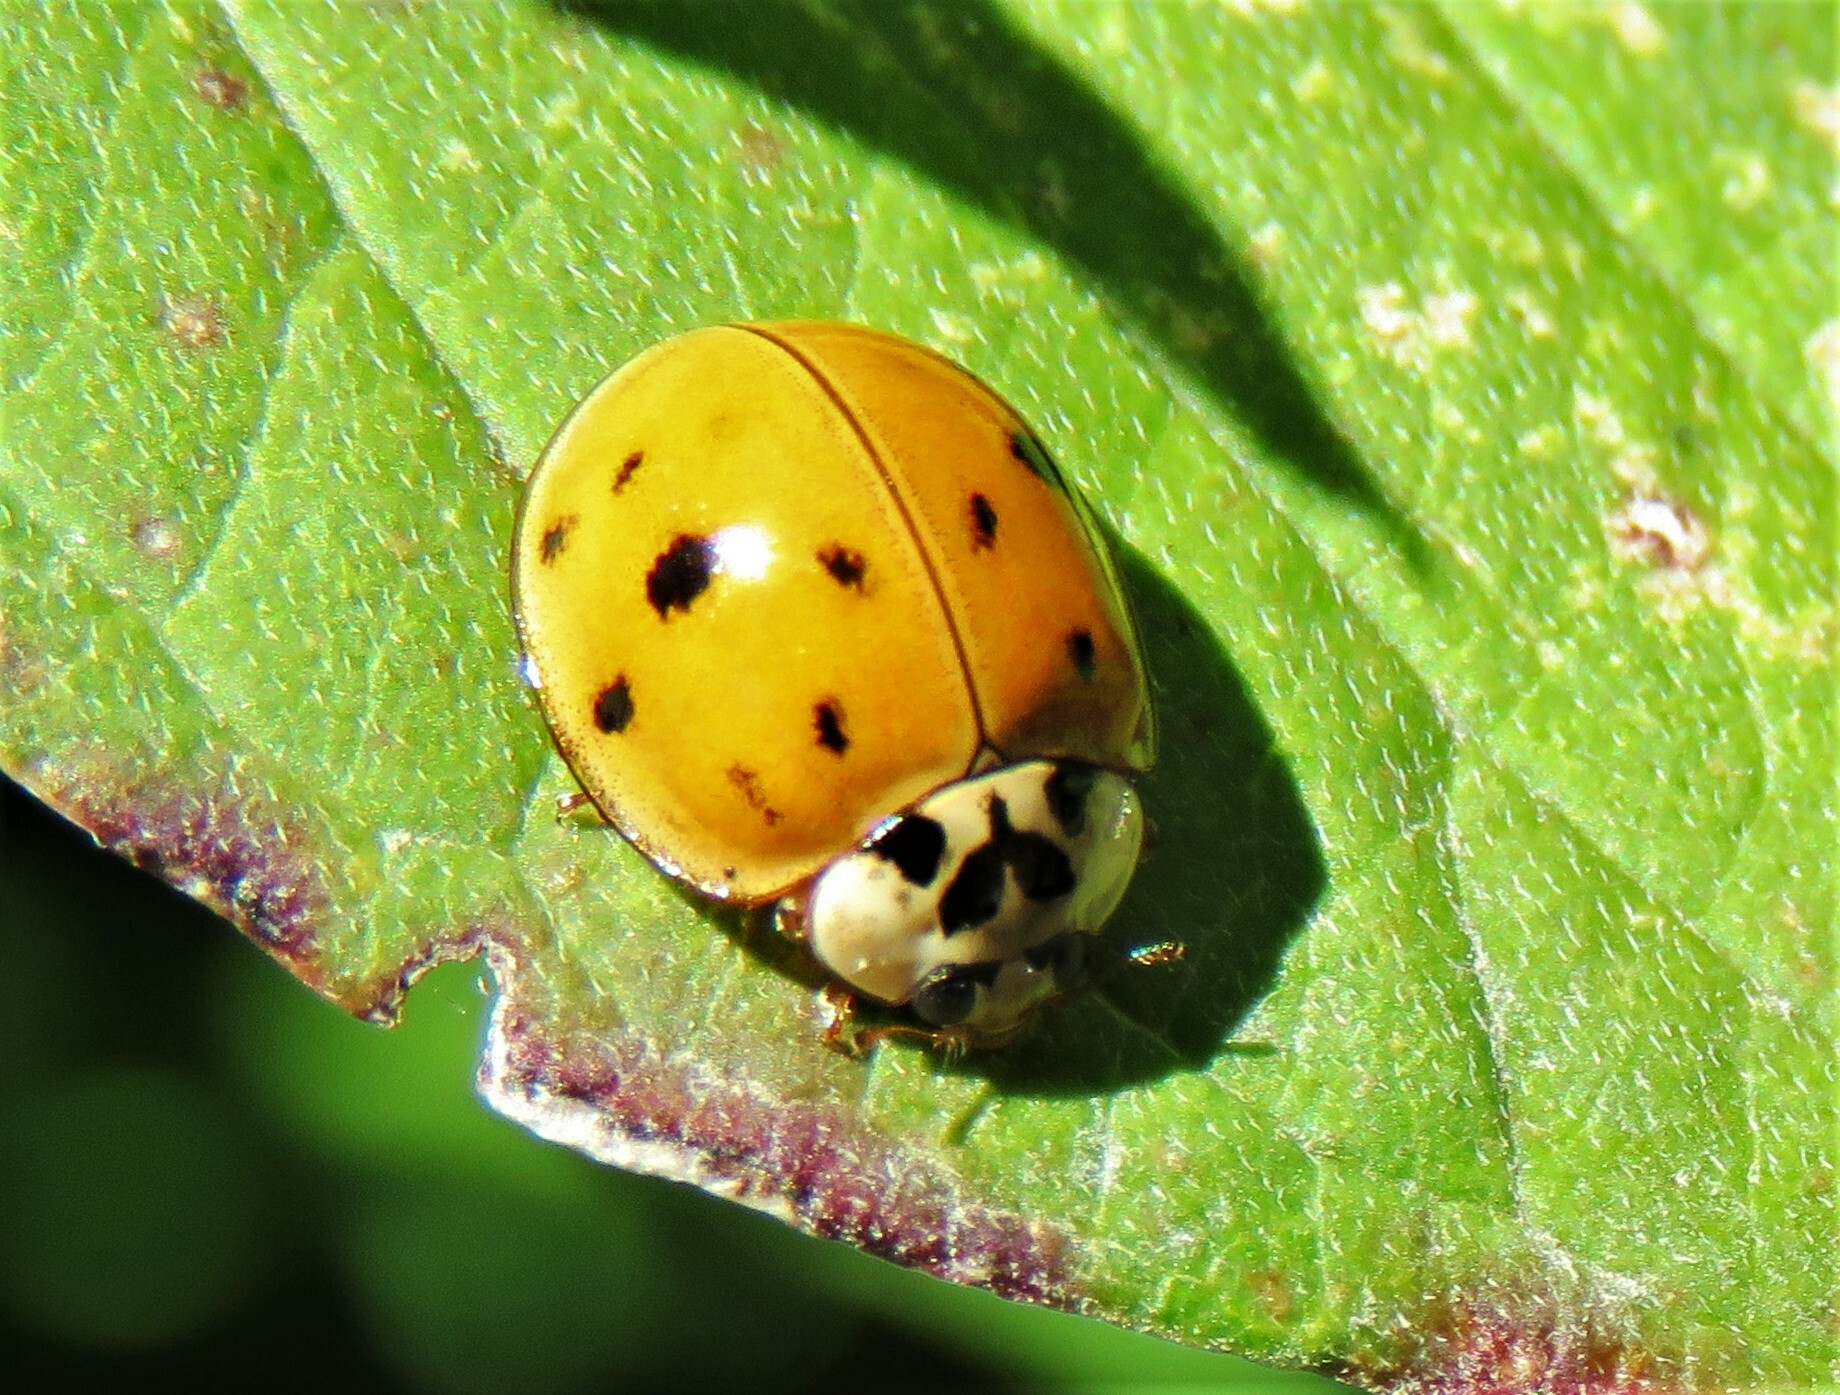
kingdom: Animalia
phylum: Arthropoda
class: Insecta
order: Coleoptera
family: Coccinellidae
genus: Harmonia
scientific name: Harmonia axyridis
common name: Harlequin ladybird
